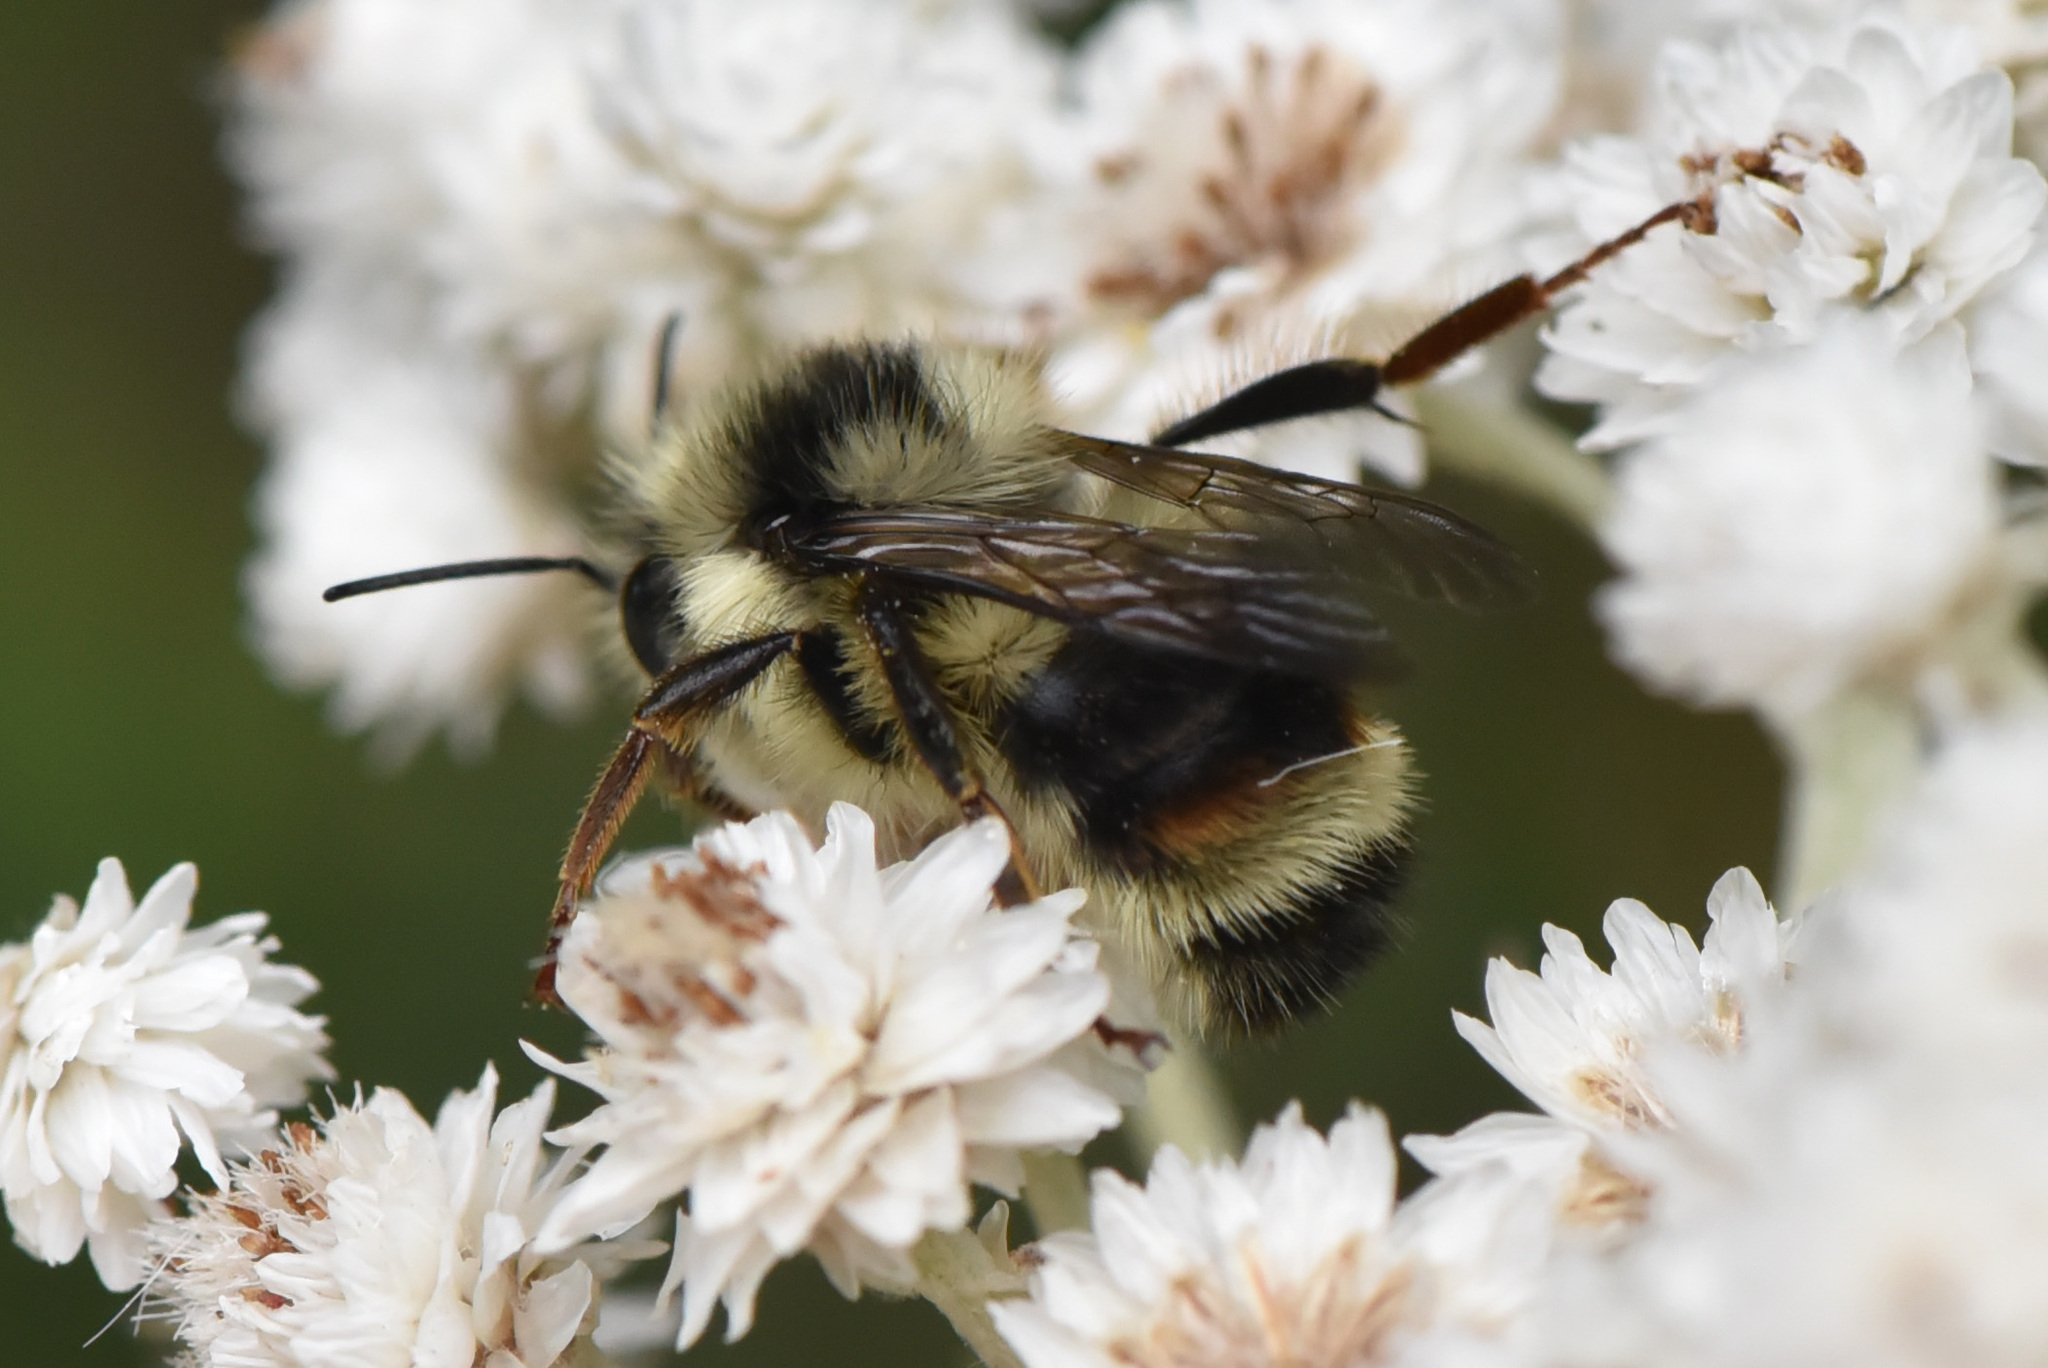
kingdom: Animalia
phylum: Arthropoda
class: Insecta
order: Hymenoptera
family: Apidae
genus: Bombus
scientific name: Bombus vancouverensis
